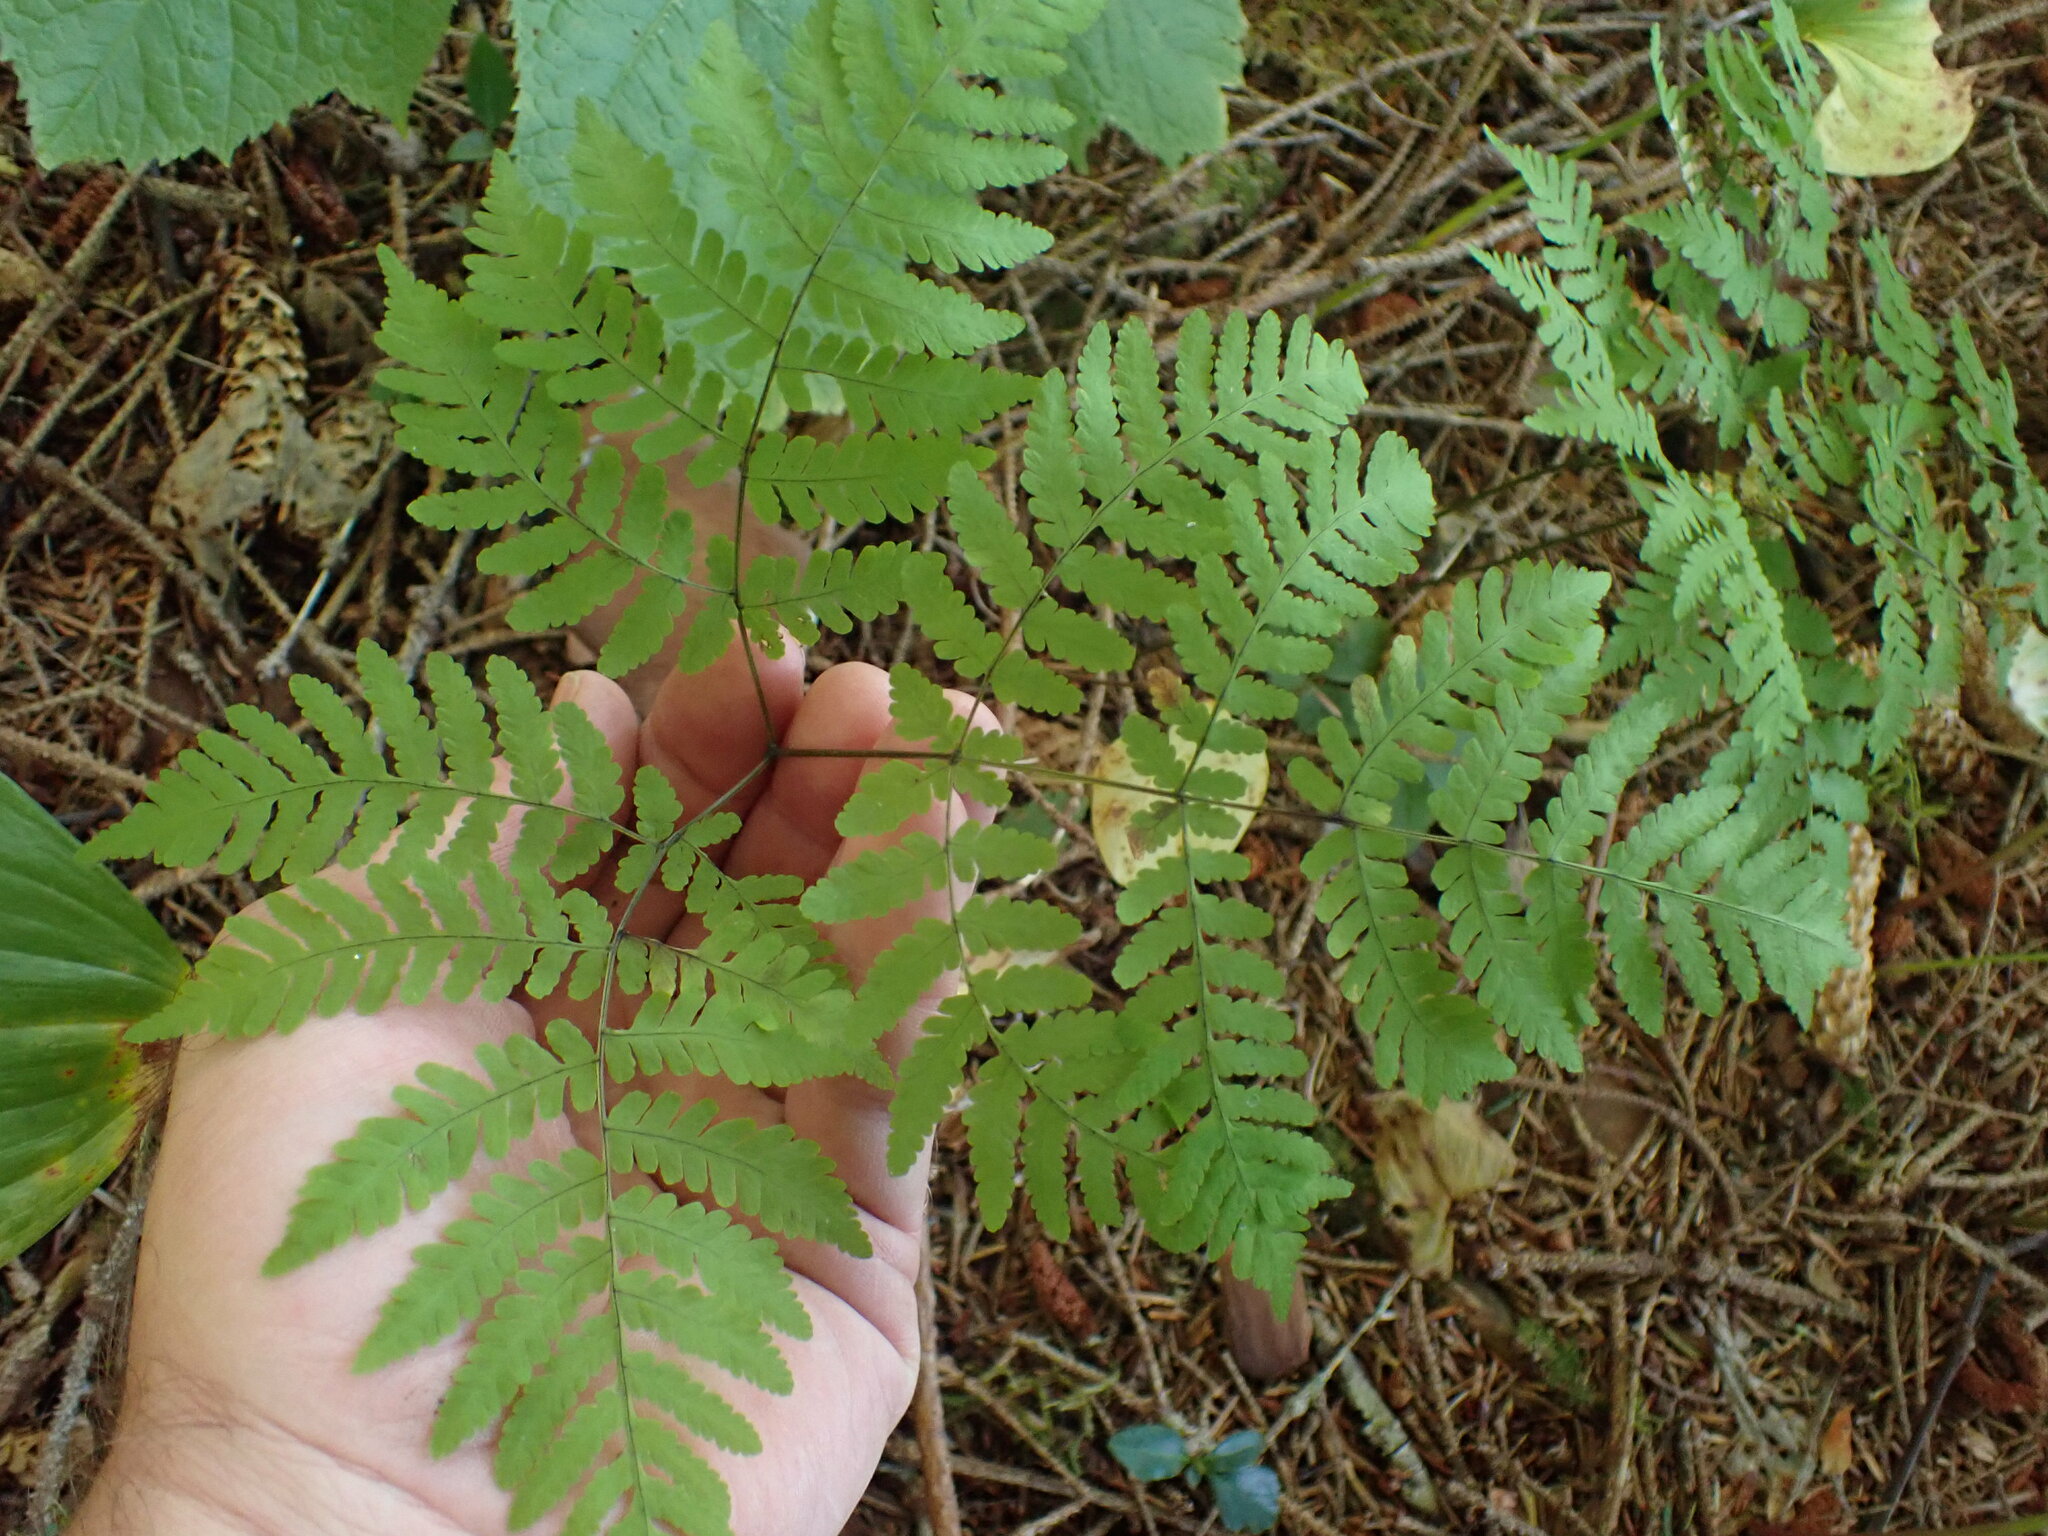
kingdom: Plantae
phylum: Tracheophyta
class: Polypodiopsida
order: Polypodiales
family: Cystopteridaceae
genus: Gymnocarpium
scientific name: Gymnocarpium disjunctum
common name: Western oak fern
